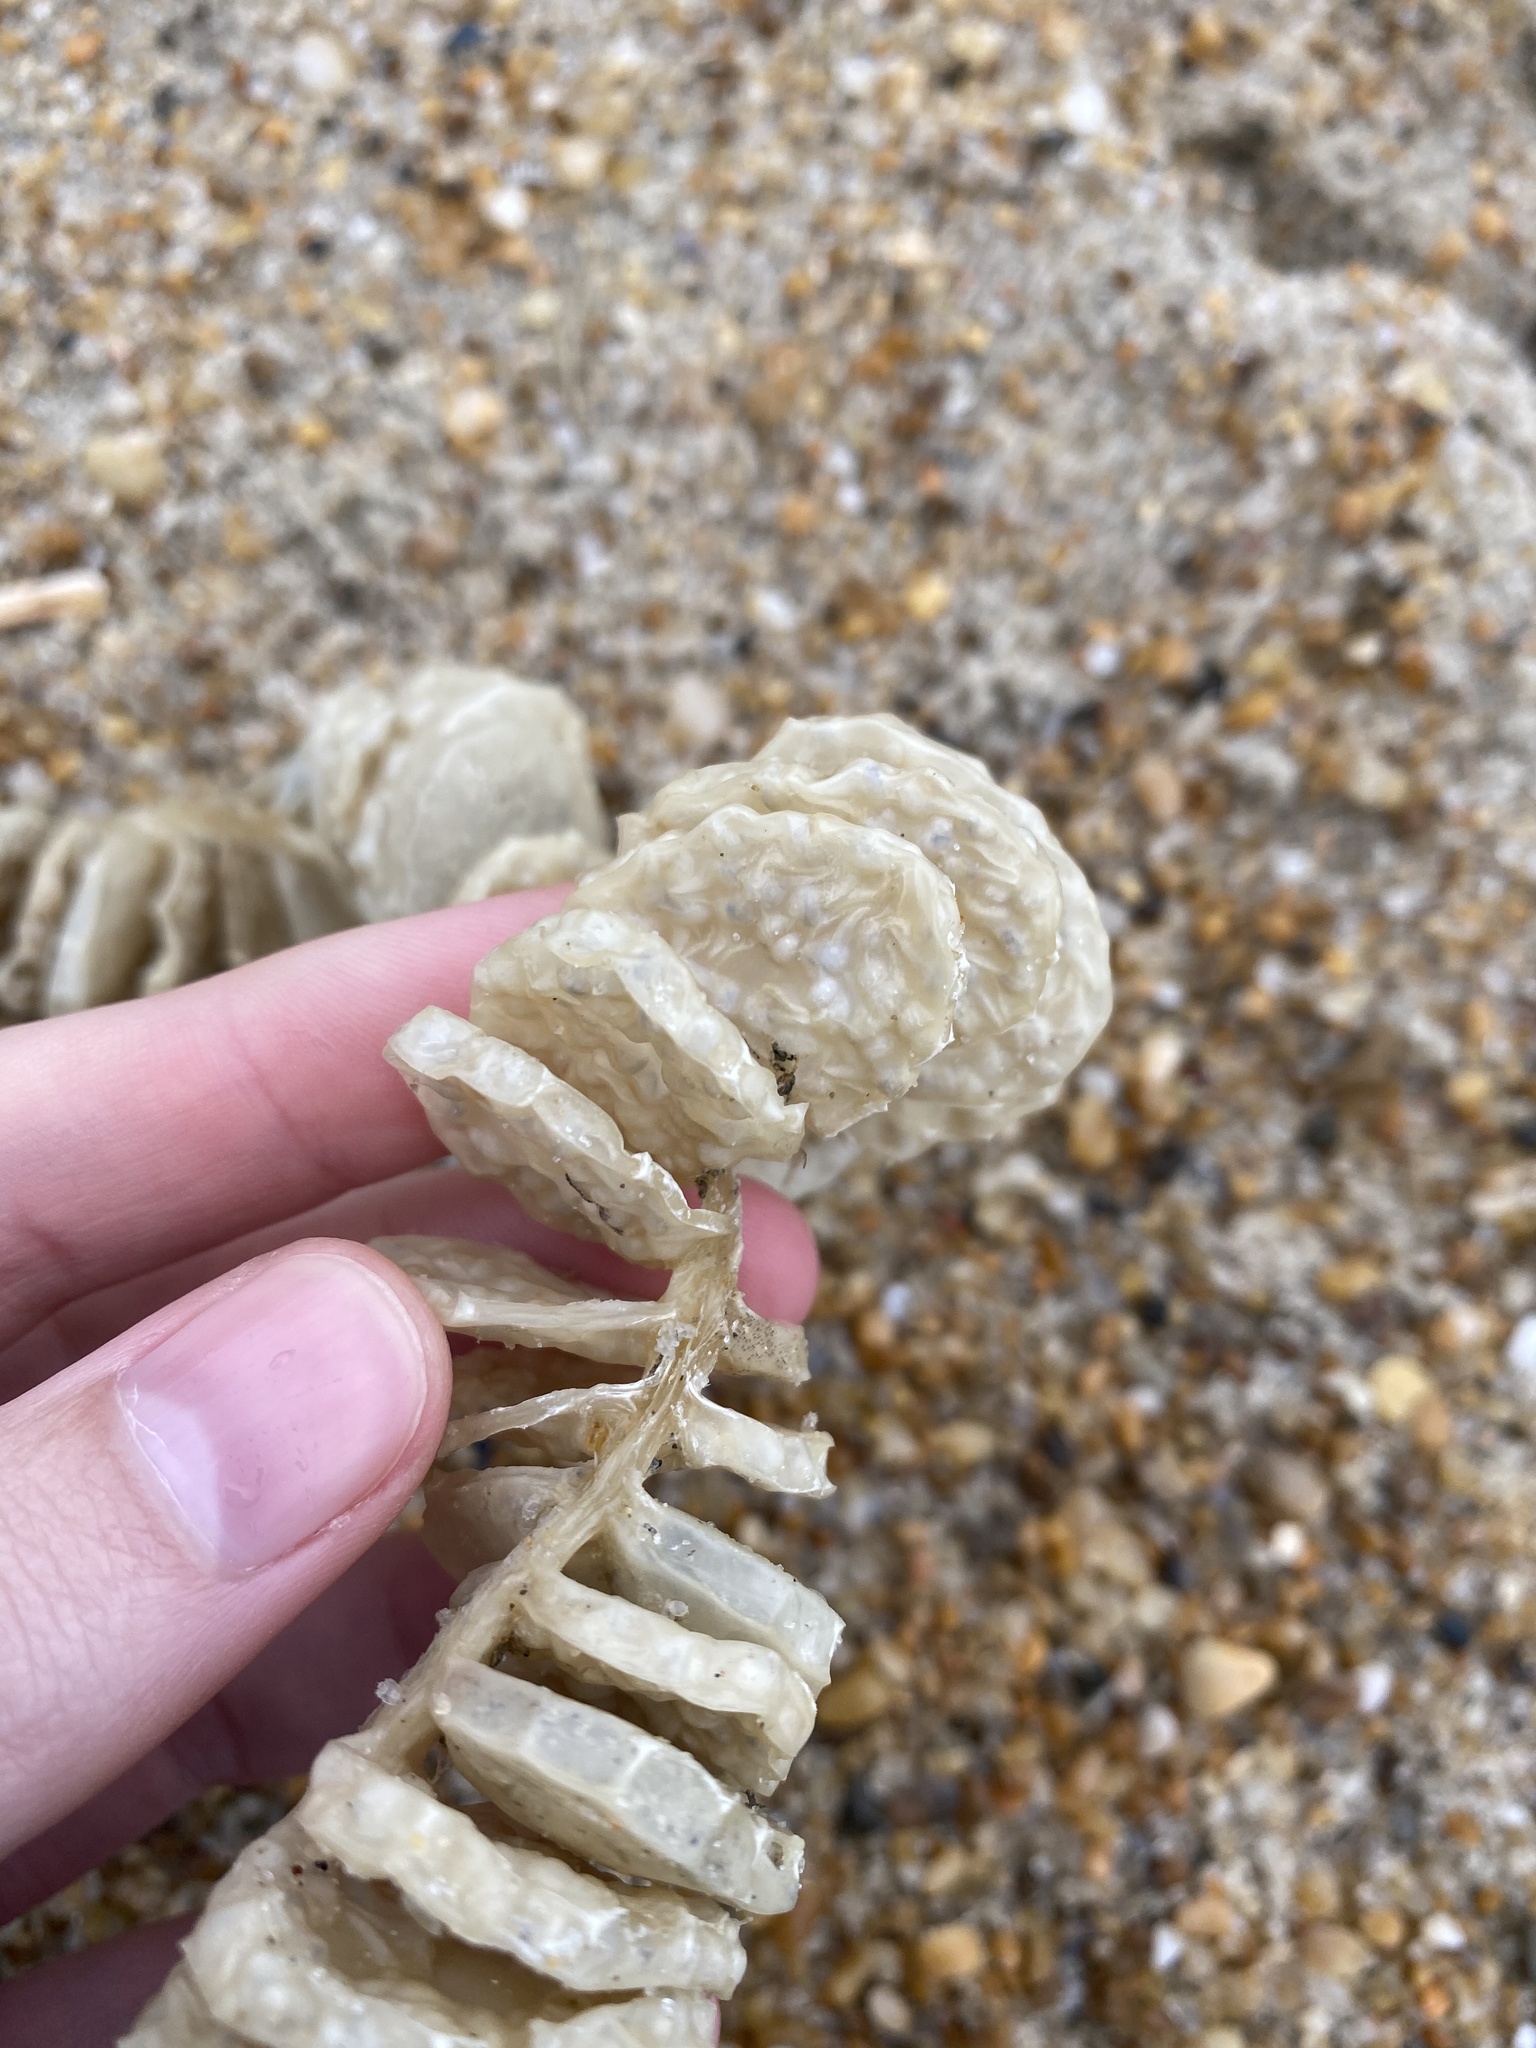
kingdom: Animalia
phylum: Mollusca
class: Gastropoda
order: Neogastropoda
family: Busyconidae
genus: Busycon
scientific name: Busycon carica
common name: Knobbed whelk
